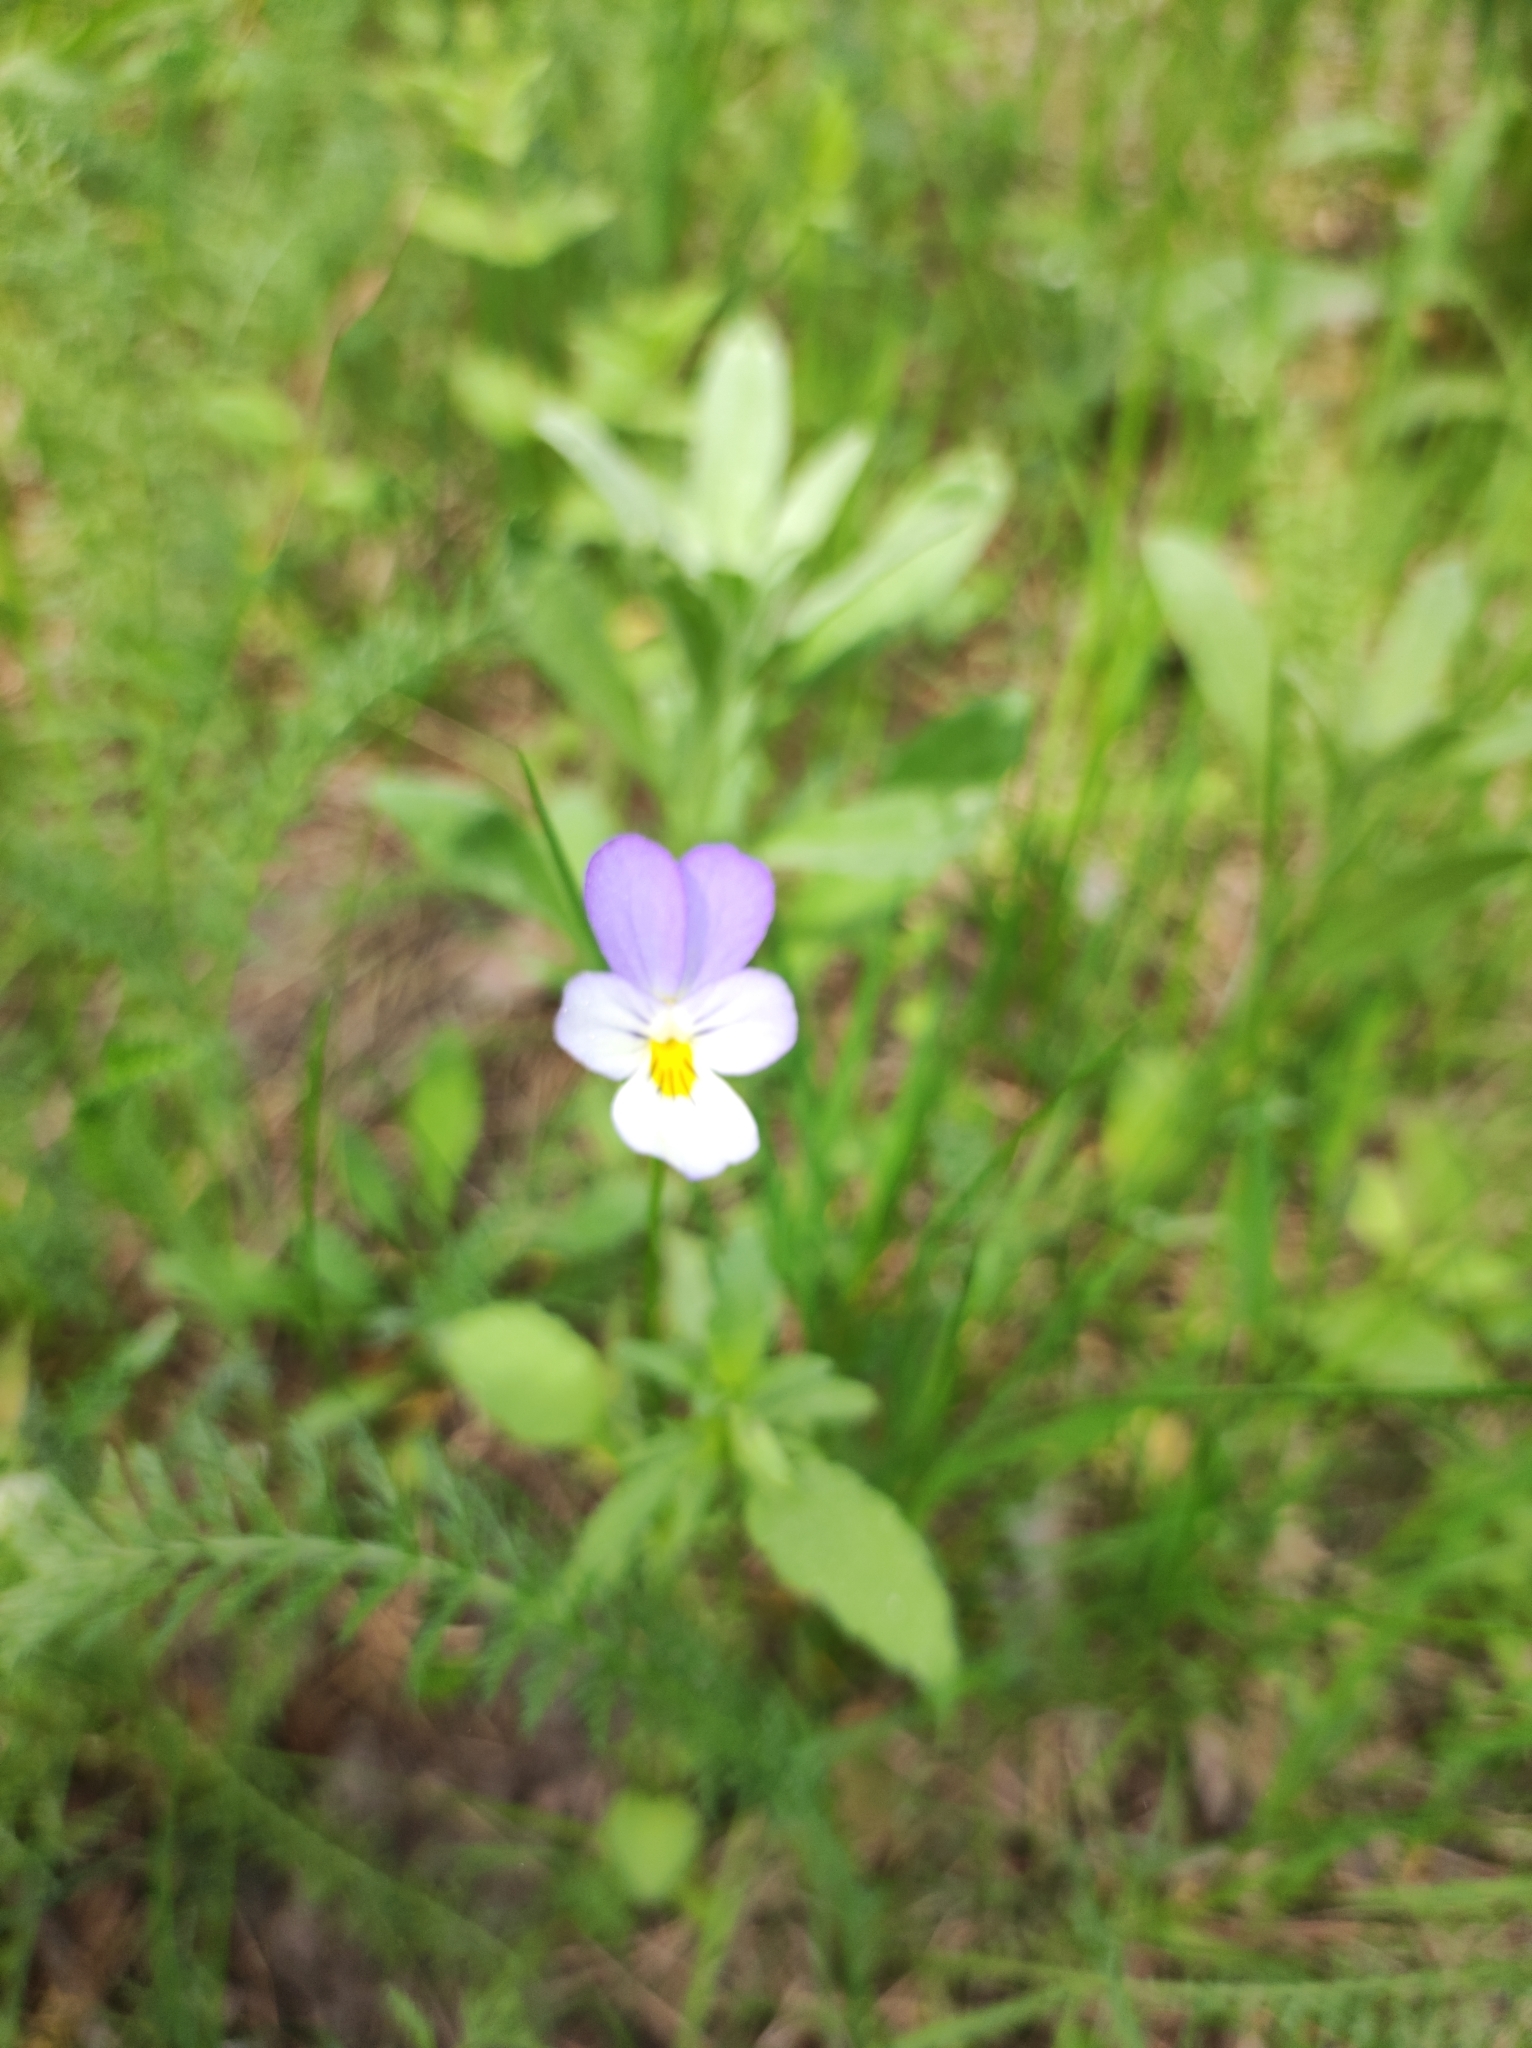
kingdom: Plantae
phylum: Tracheophyta
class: Magnoliopsida
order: Malpighiales
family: Violaceae
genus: Viola
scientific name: Viola tricolor
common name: Pansy
